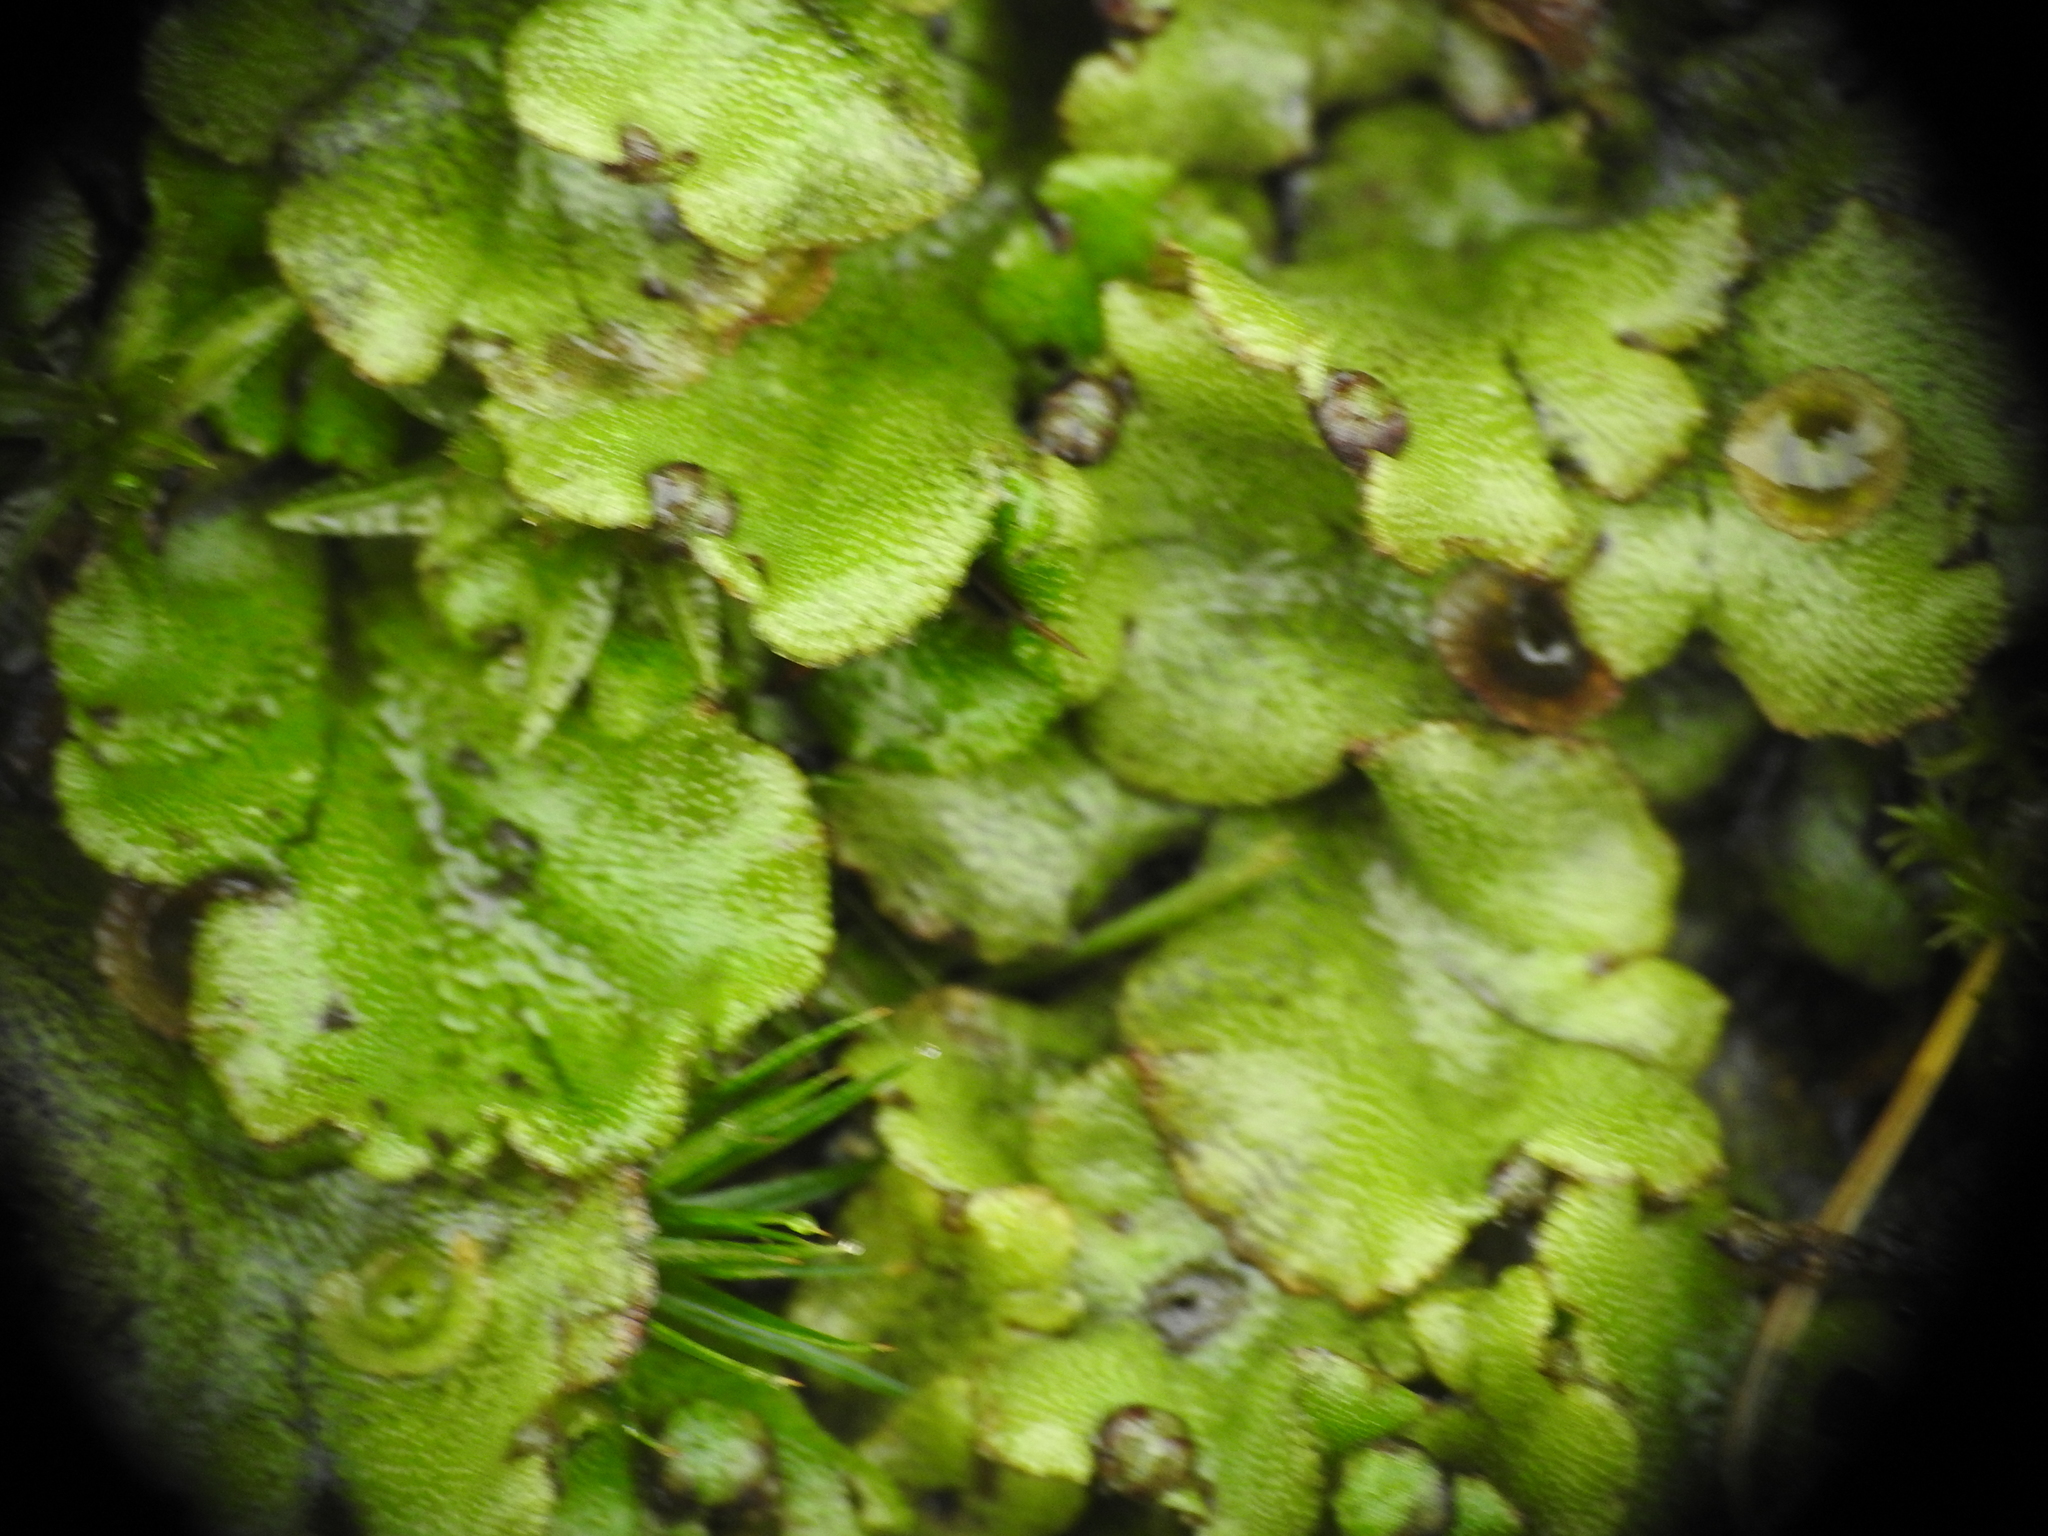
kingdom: Plantae
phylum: Marchantiophyta
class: Marchantiopsida
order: Marchantiales
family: Marchantiaceae
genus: Marchantia
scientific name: Marchantia polymorpha
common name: Common liverwort
